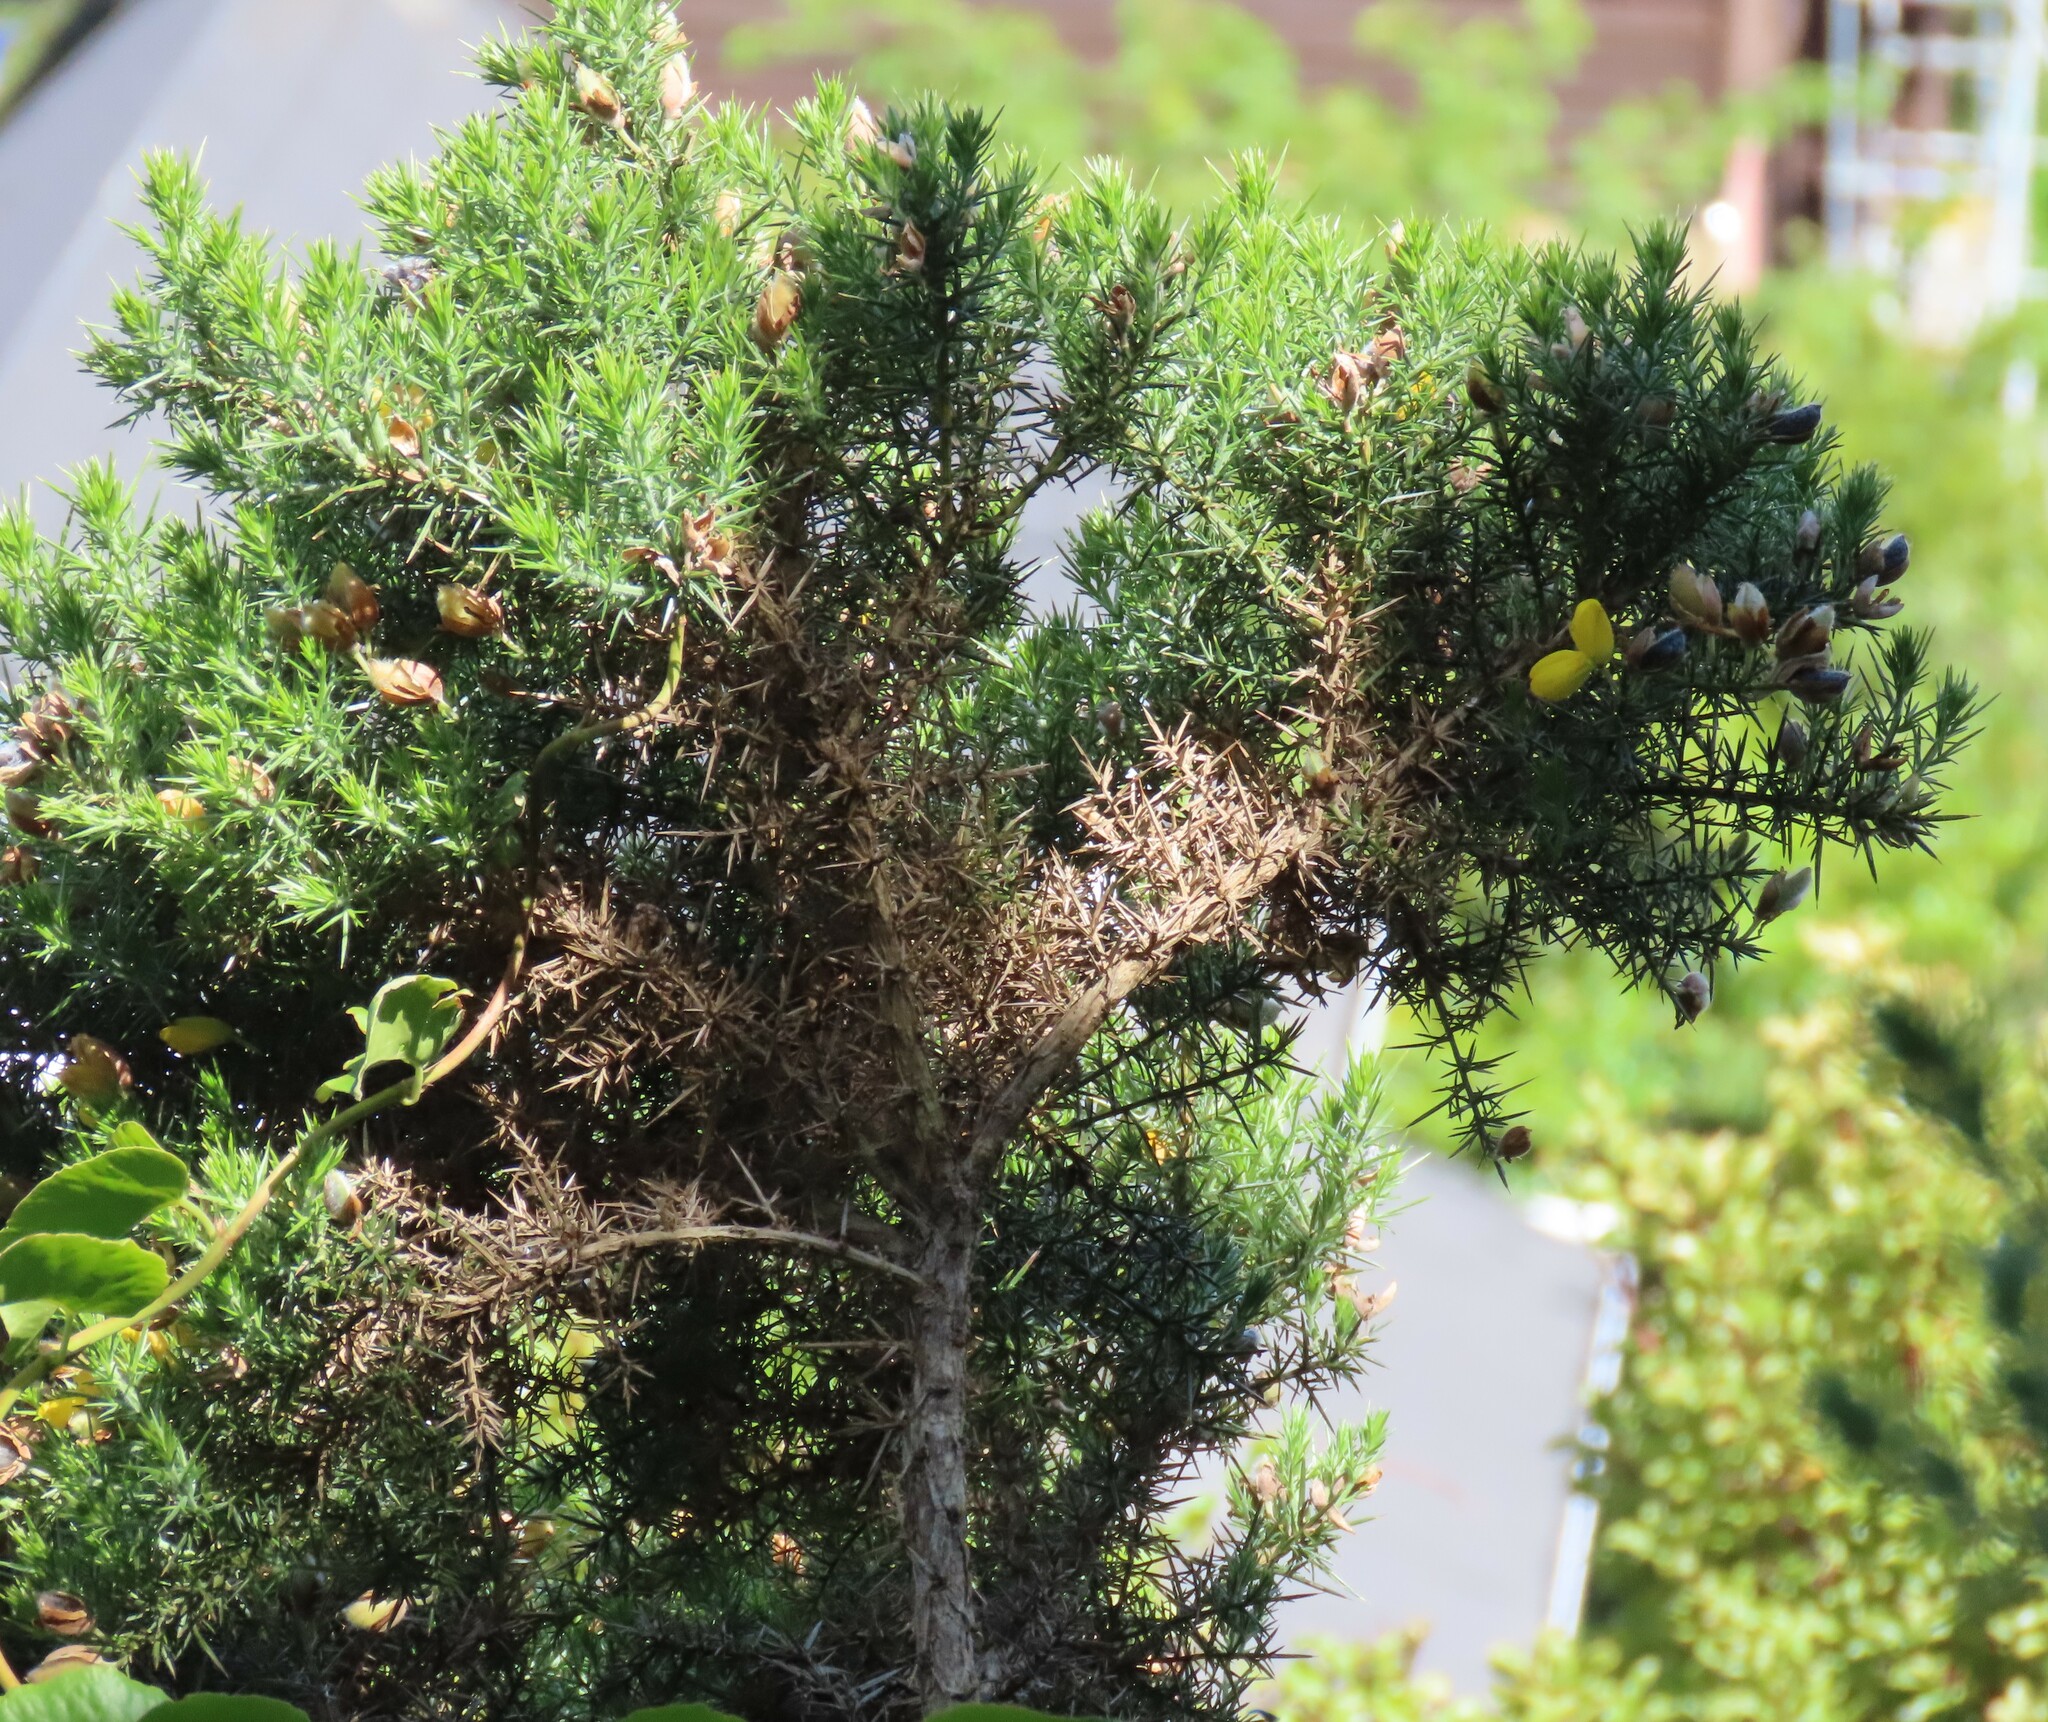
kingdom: Plantae
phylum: Tracheophyta
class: Magnoliopsida
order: Fabales
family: Fabaceae
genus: Ulex
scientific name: Ulex europaeus
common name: Common gorse
